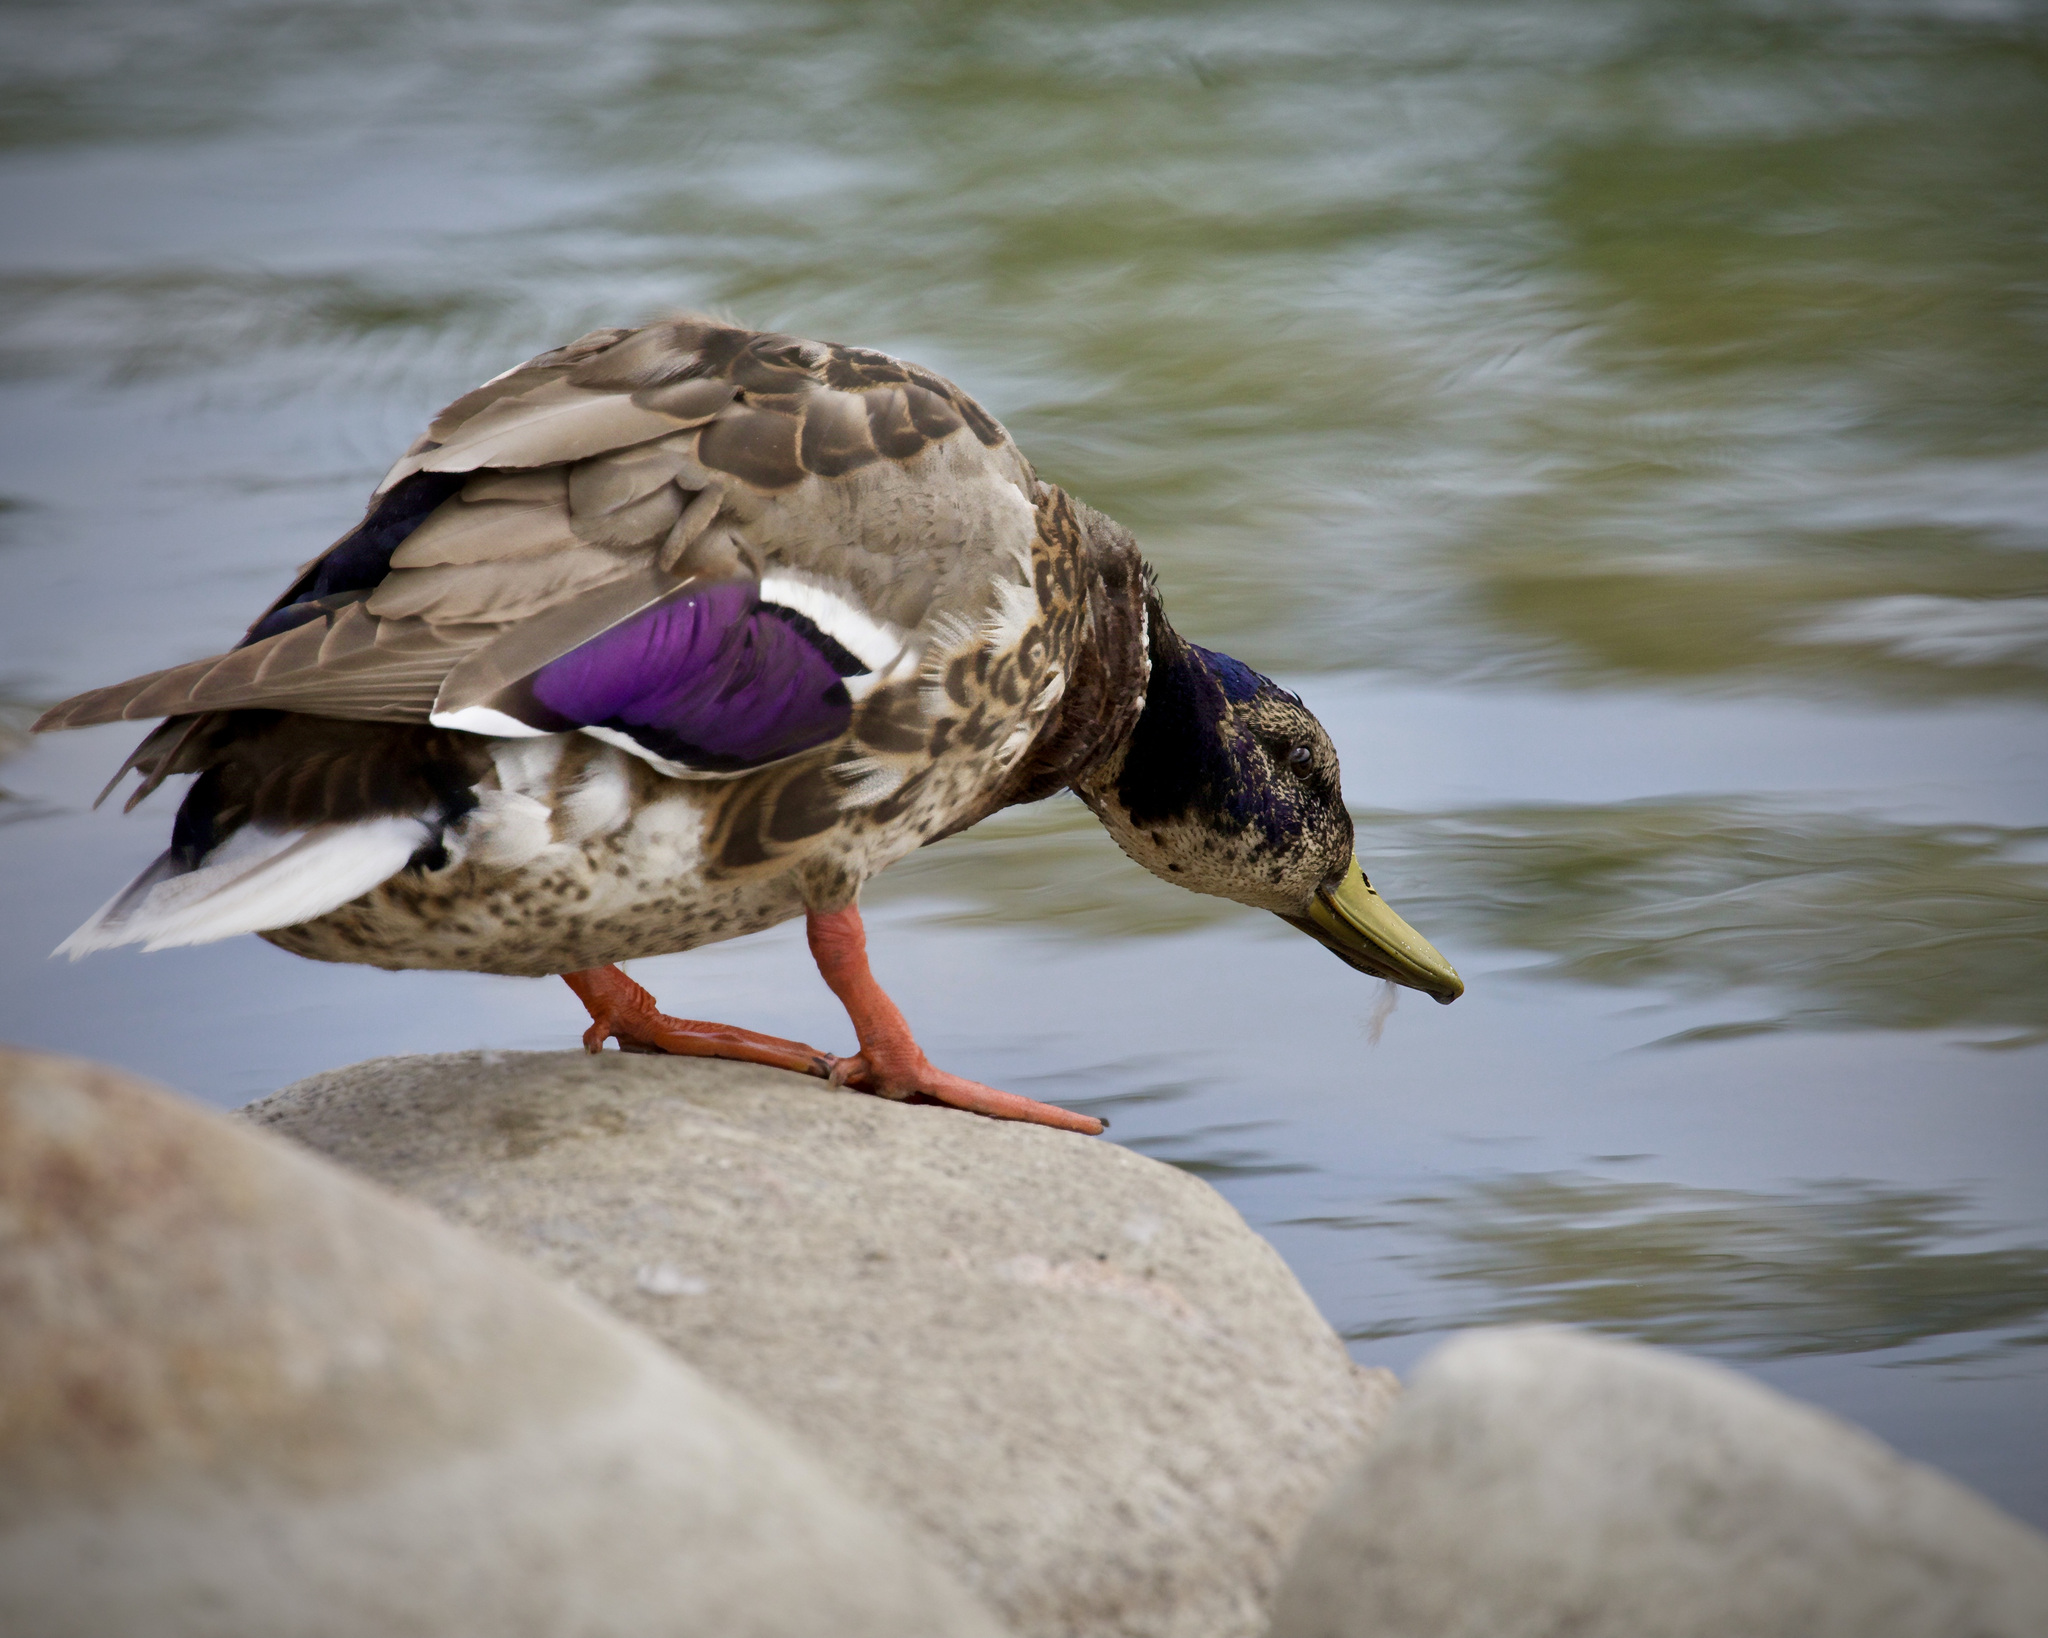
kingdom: Animalia
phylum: Chordata
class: Aves
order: Anseriformes
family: Anatidae
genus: Anas
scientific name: Anas platyrhynchos
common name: Mallard
